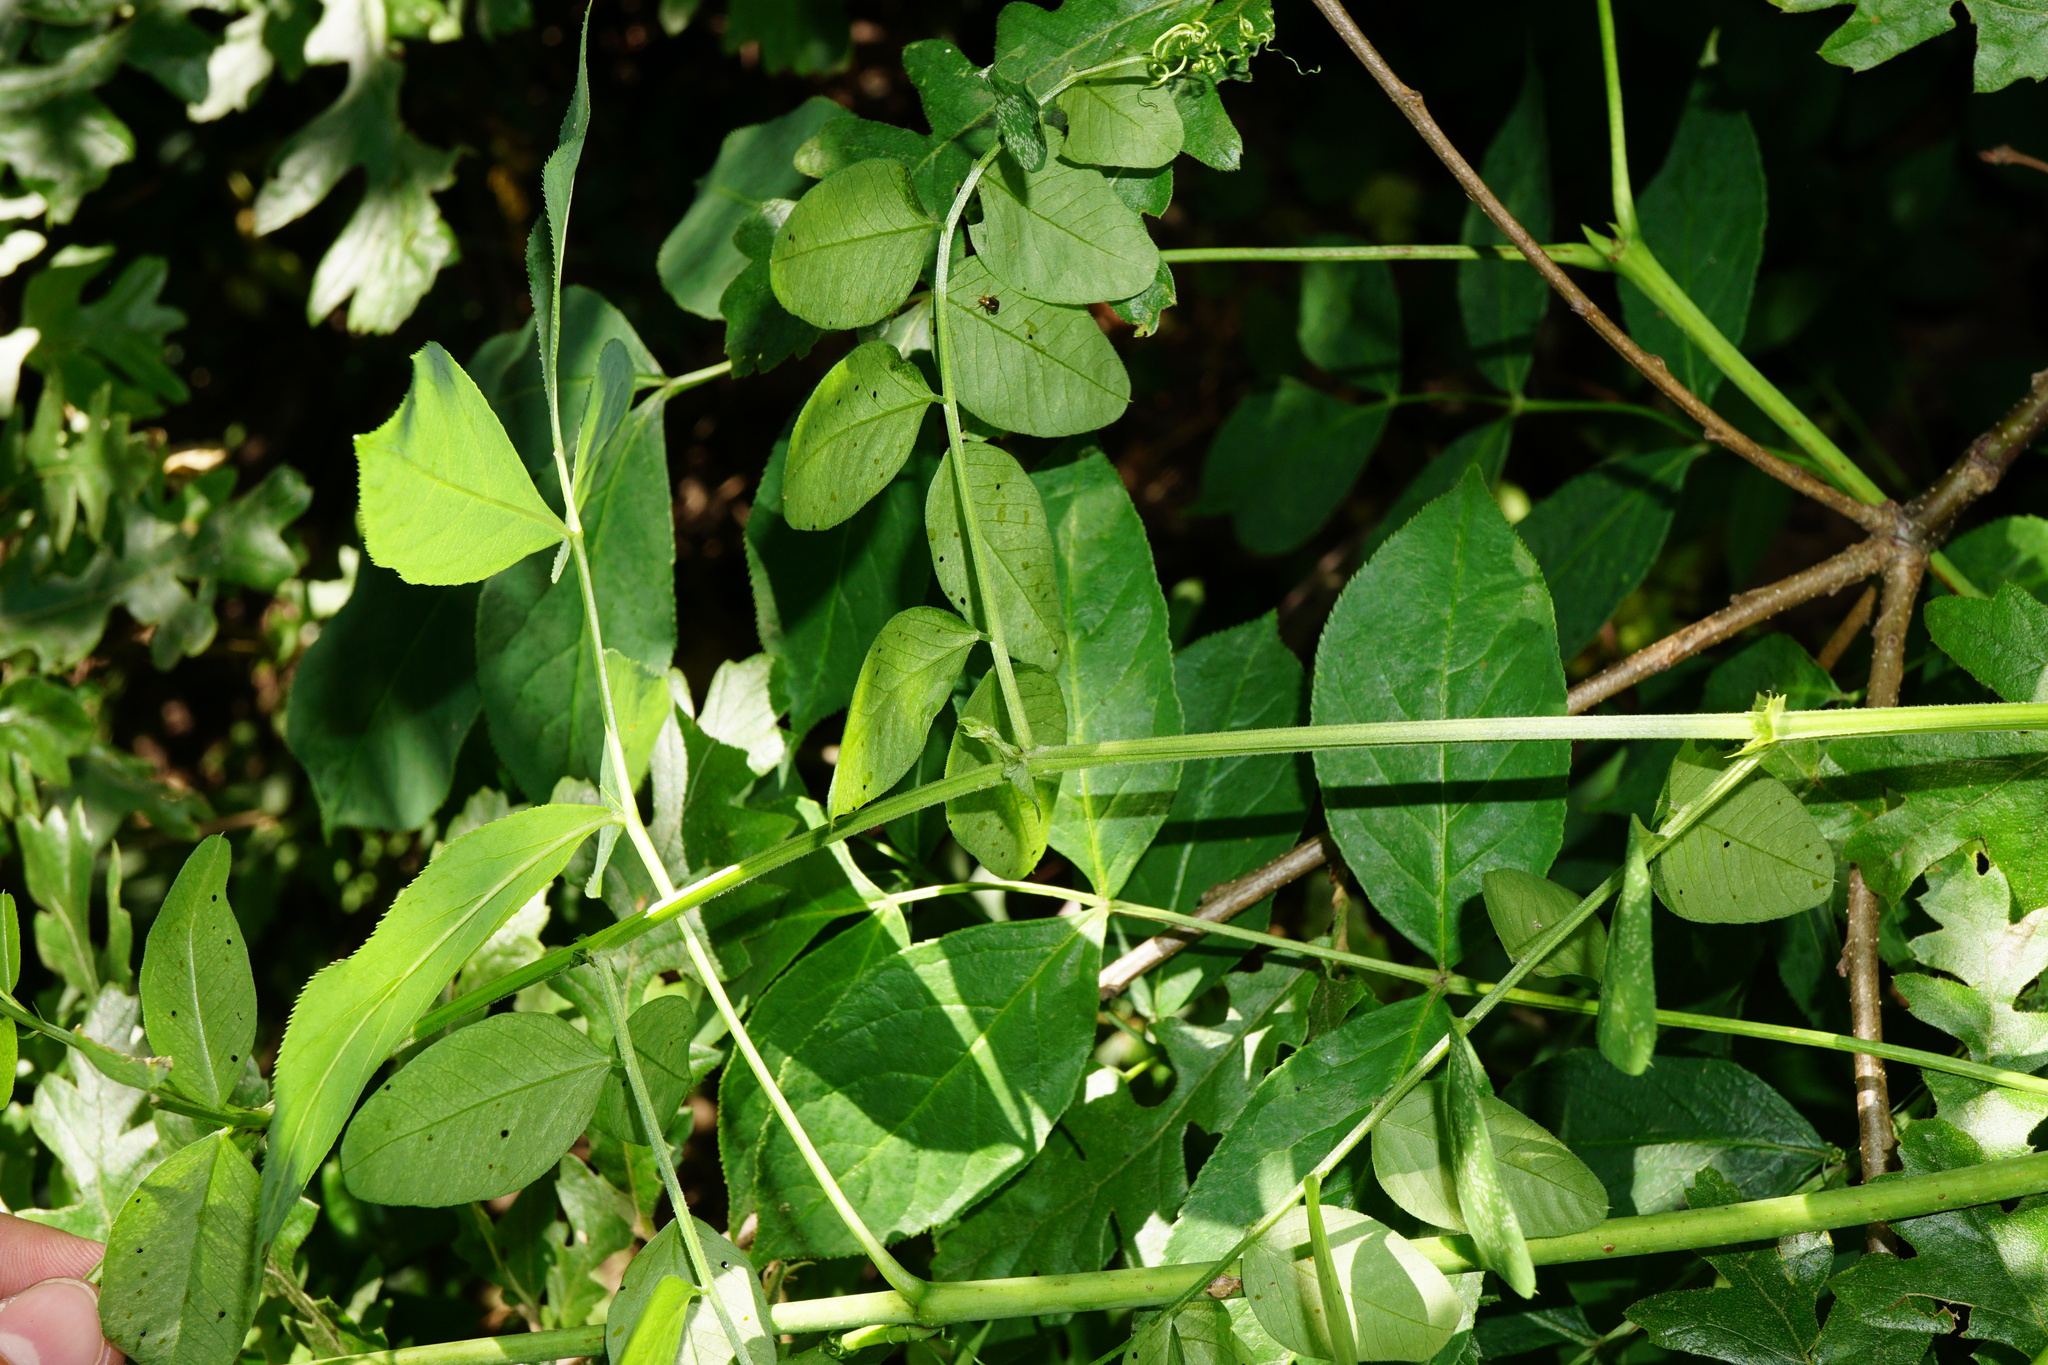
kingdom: Plantae
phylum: Tracheophyta
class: Magnoliopsida
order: Fabales
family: Fabaceae
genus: Vicia
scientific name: Vicia dumetorum
